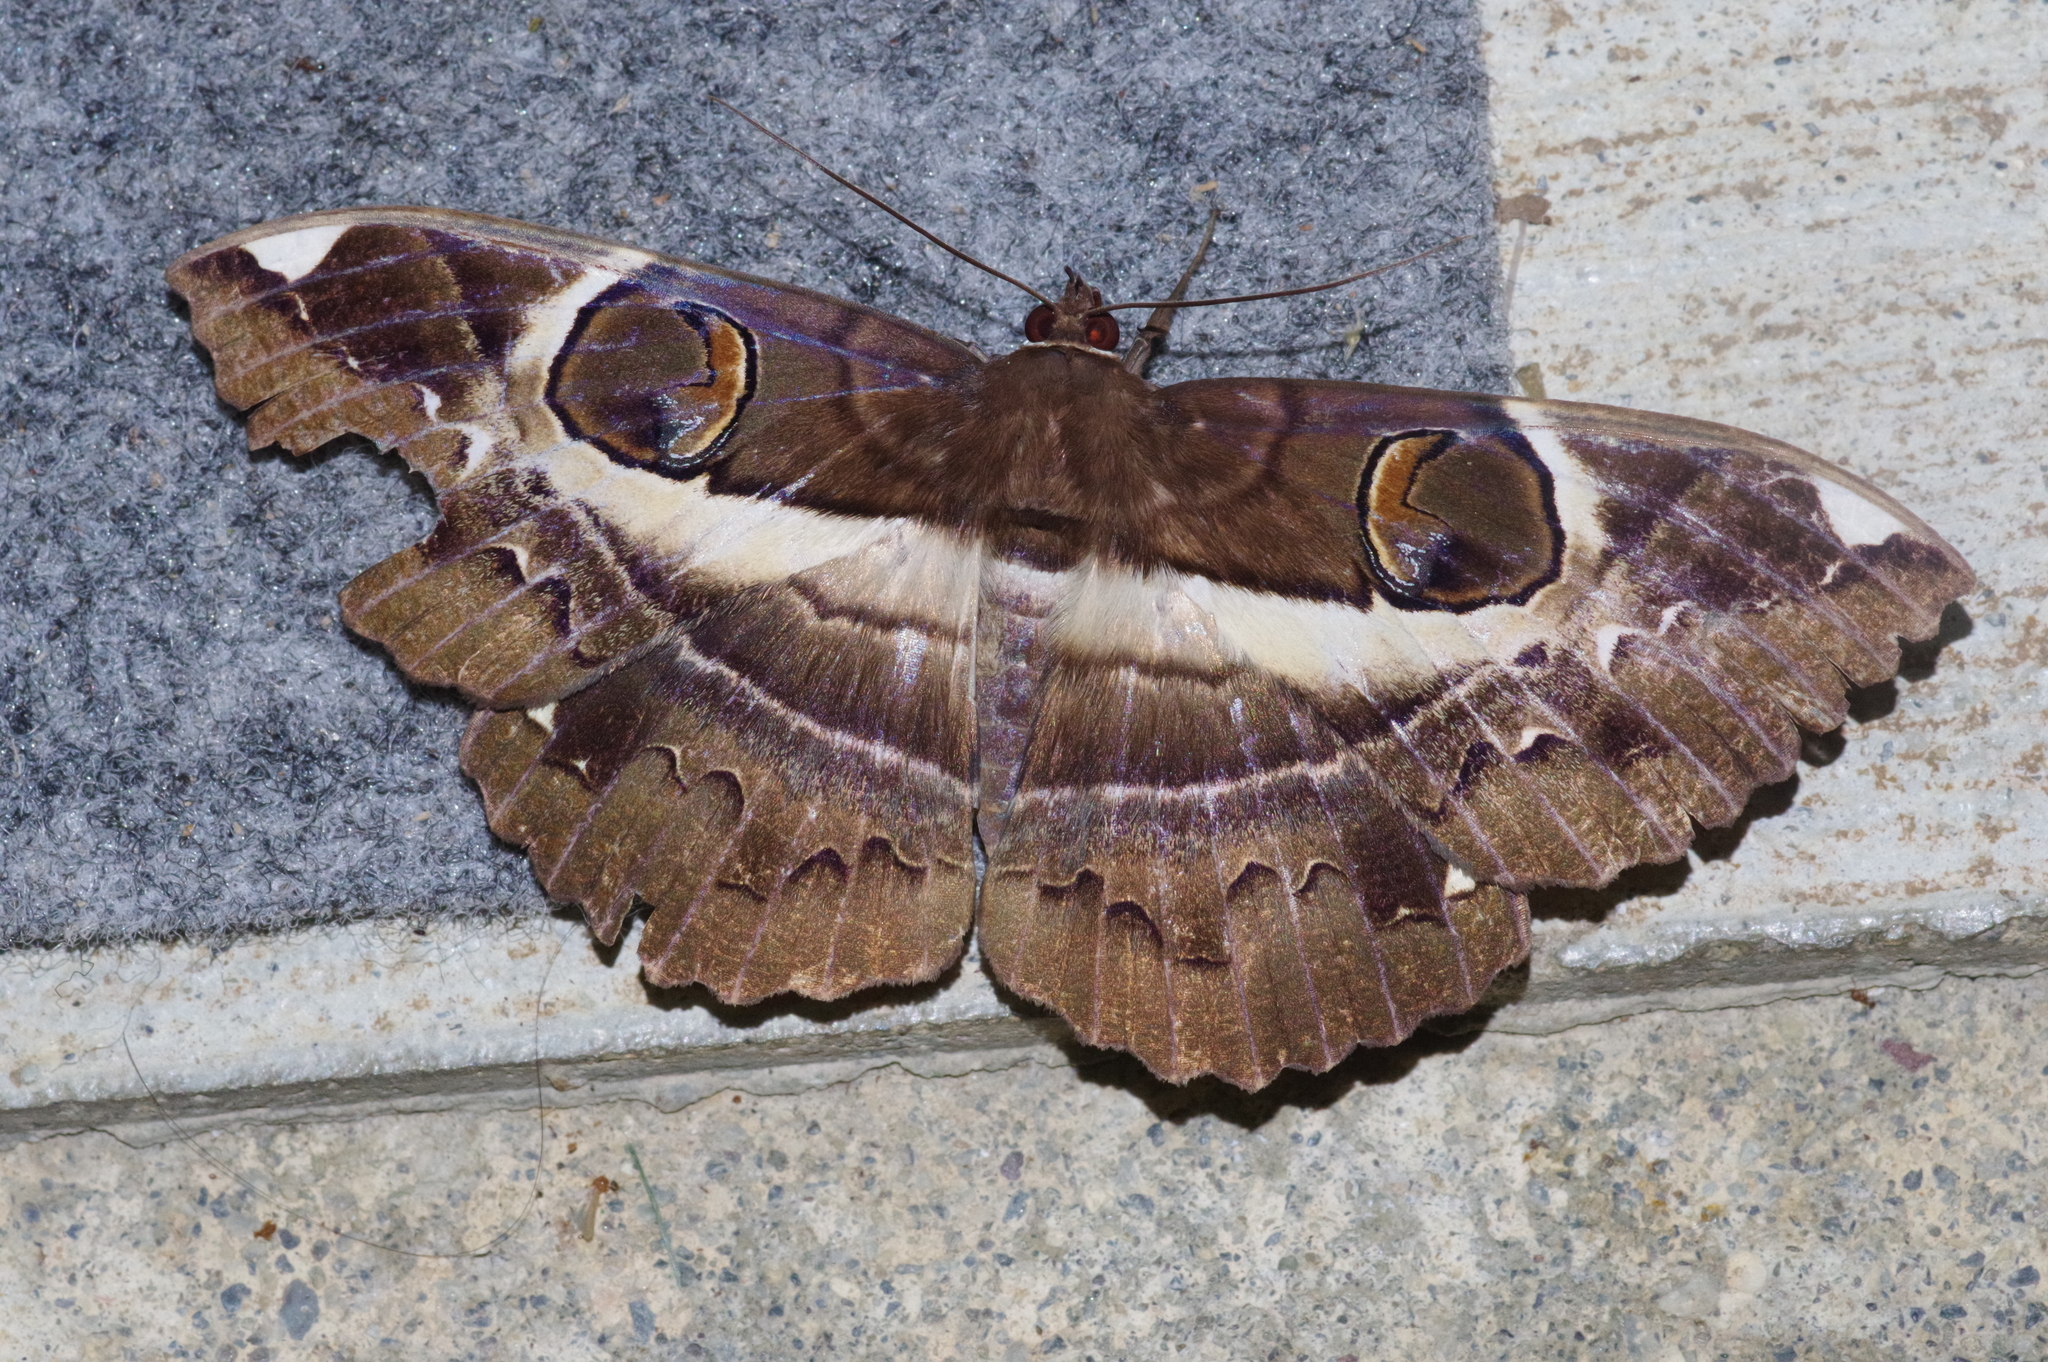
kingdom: Animalia
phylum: Arthropoda
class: Insecta
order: Lepidoptera
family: Erebidae
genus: Erebus
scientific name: Erebus ephesperis
